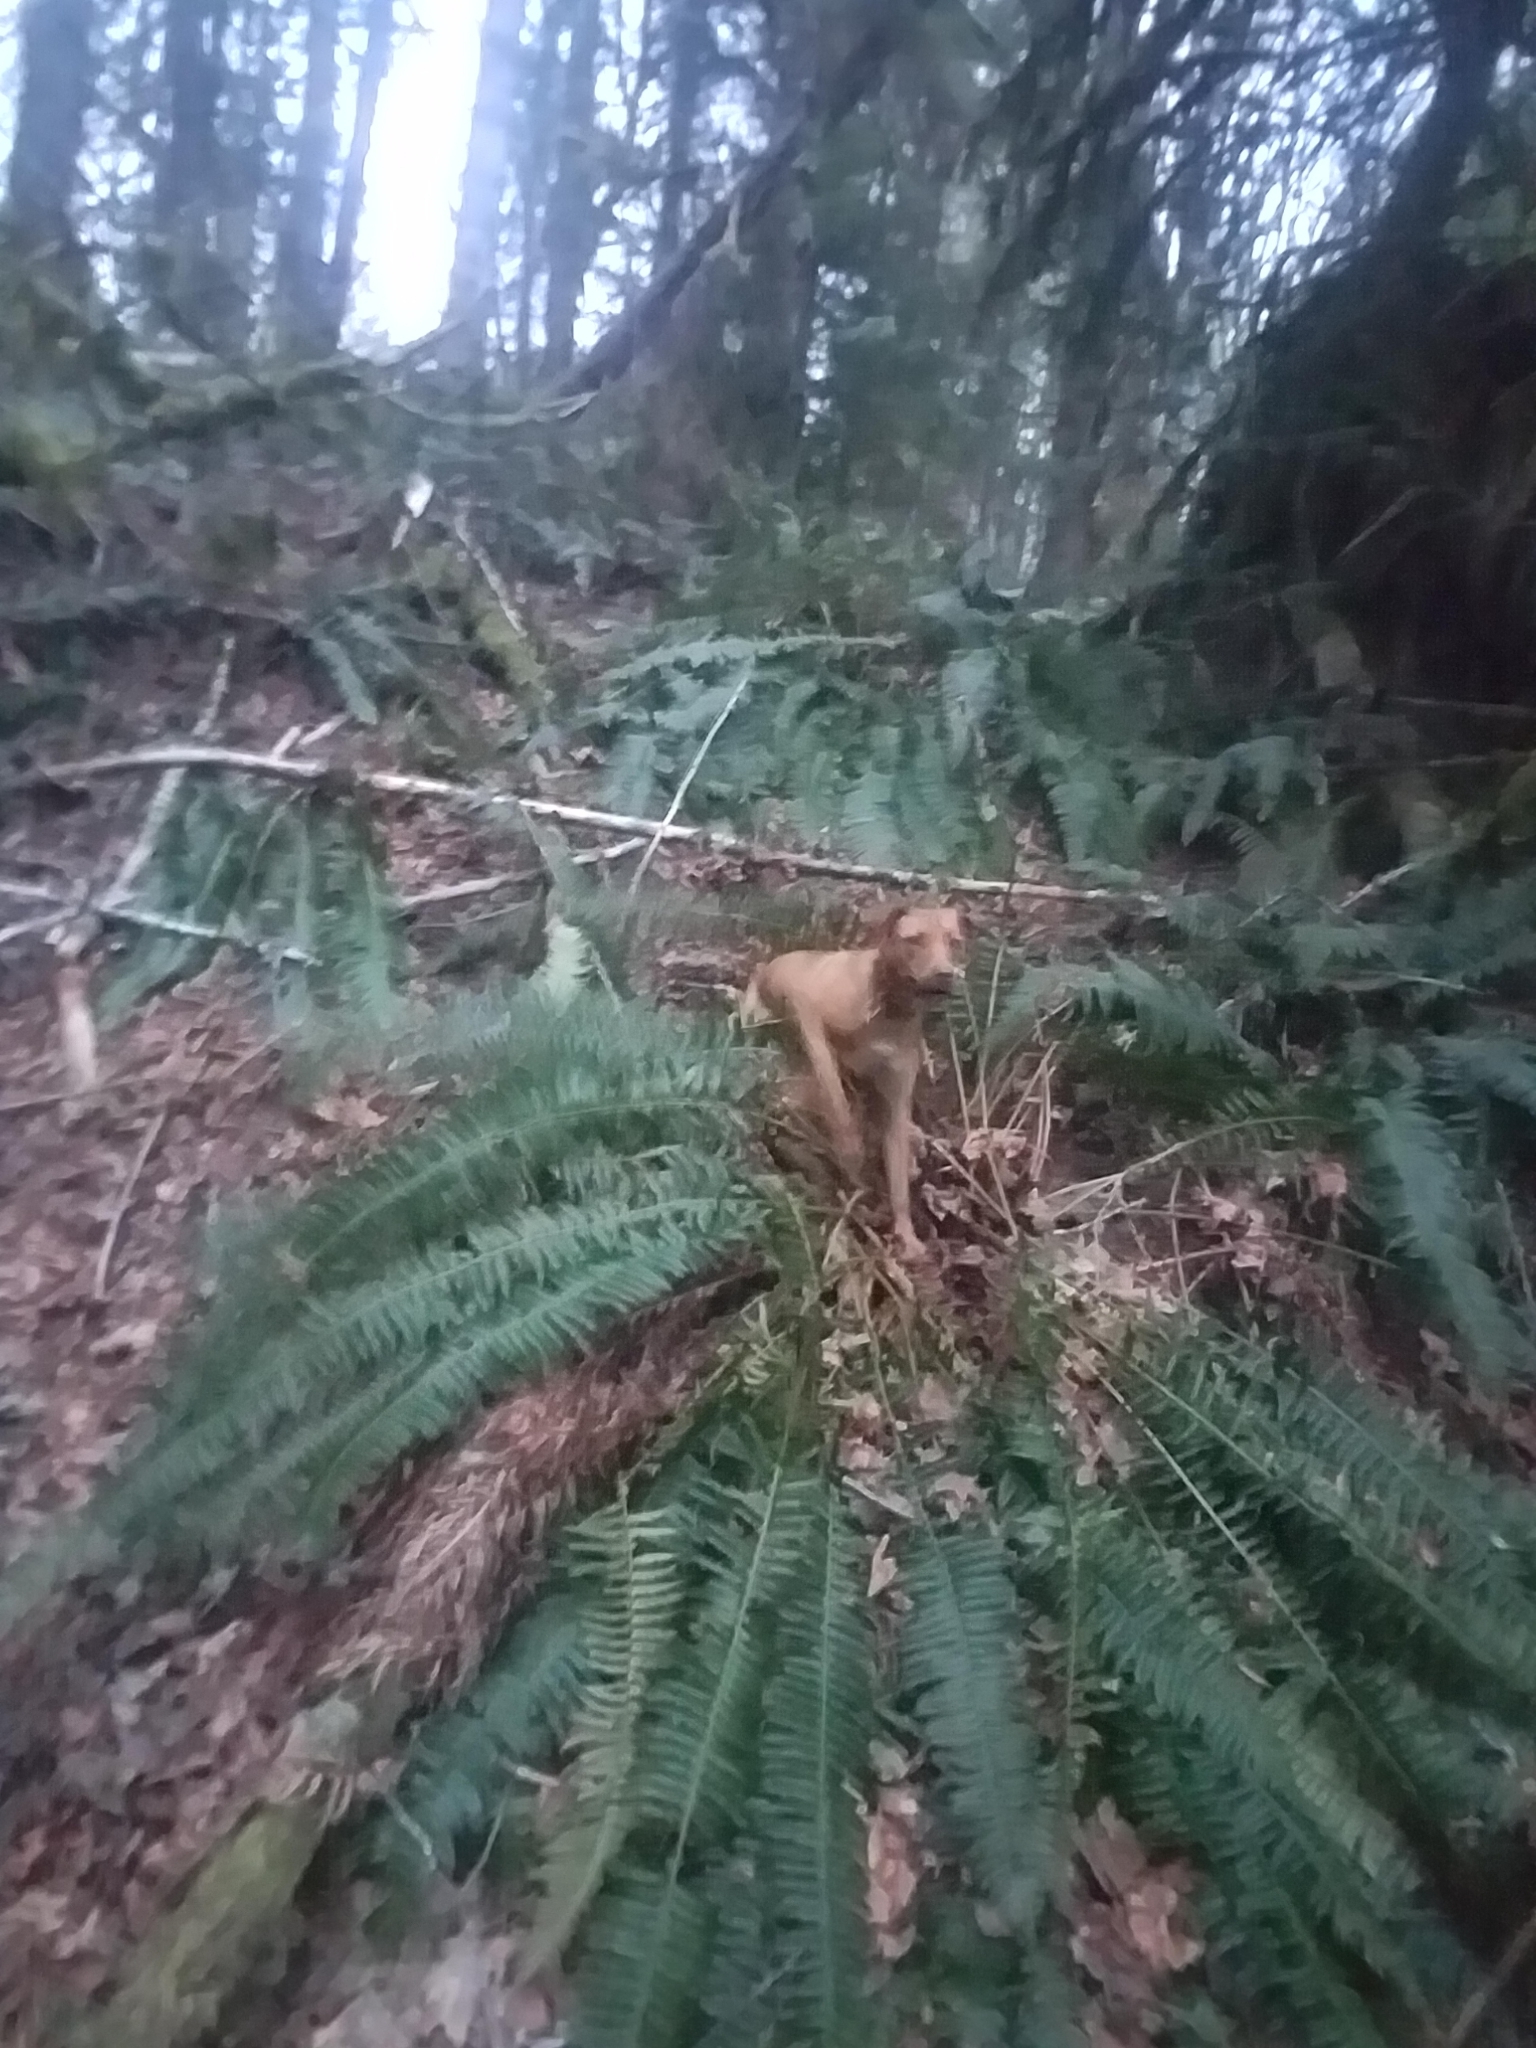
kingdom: Plantae
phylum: Tracheophyta
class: Polypodiopsida
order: Polypodiales
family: Dryopteridaceae
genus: Polystichum
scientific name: Polystichum munitum
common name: Western sword-fern
